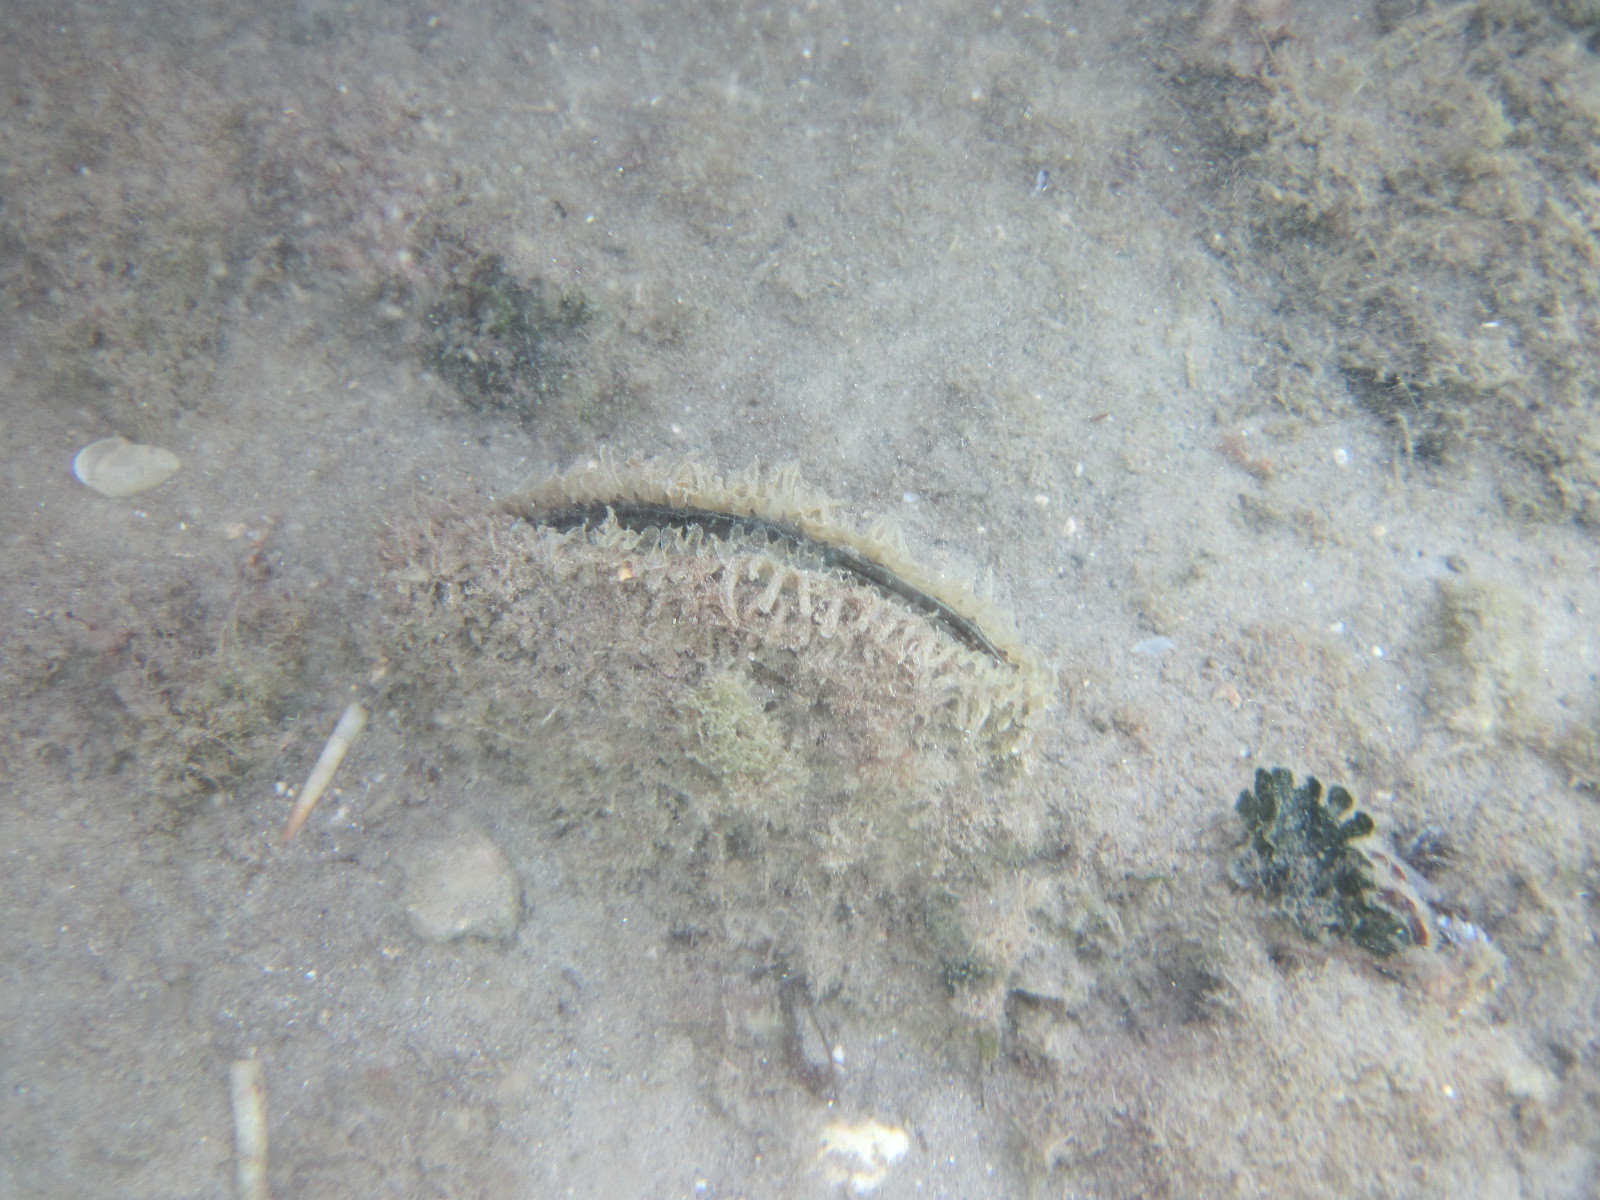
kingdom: Animalia
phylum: Mollusca
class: Bivalvia
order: Ostreida
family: Pinnidae
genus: Pinna
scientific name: Pinna nobilis
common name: Fan mussel
